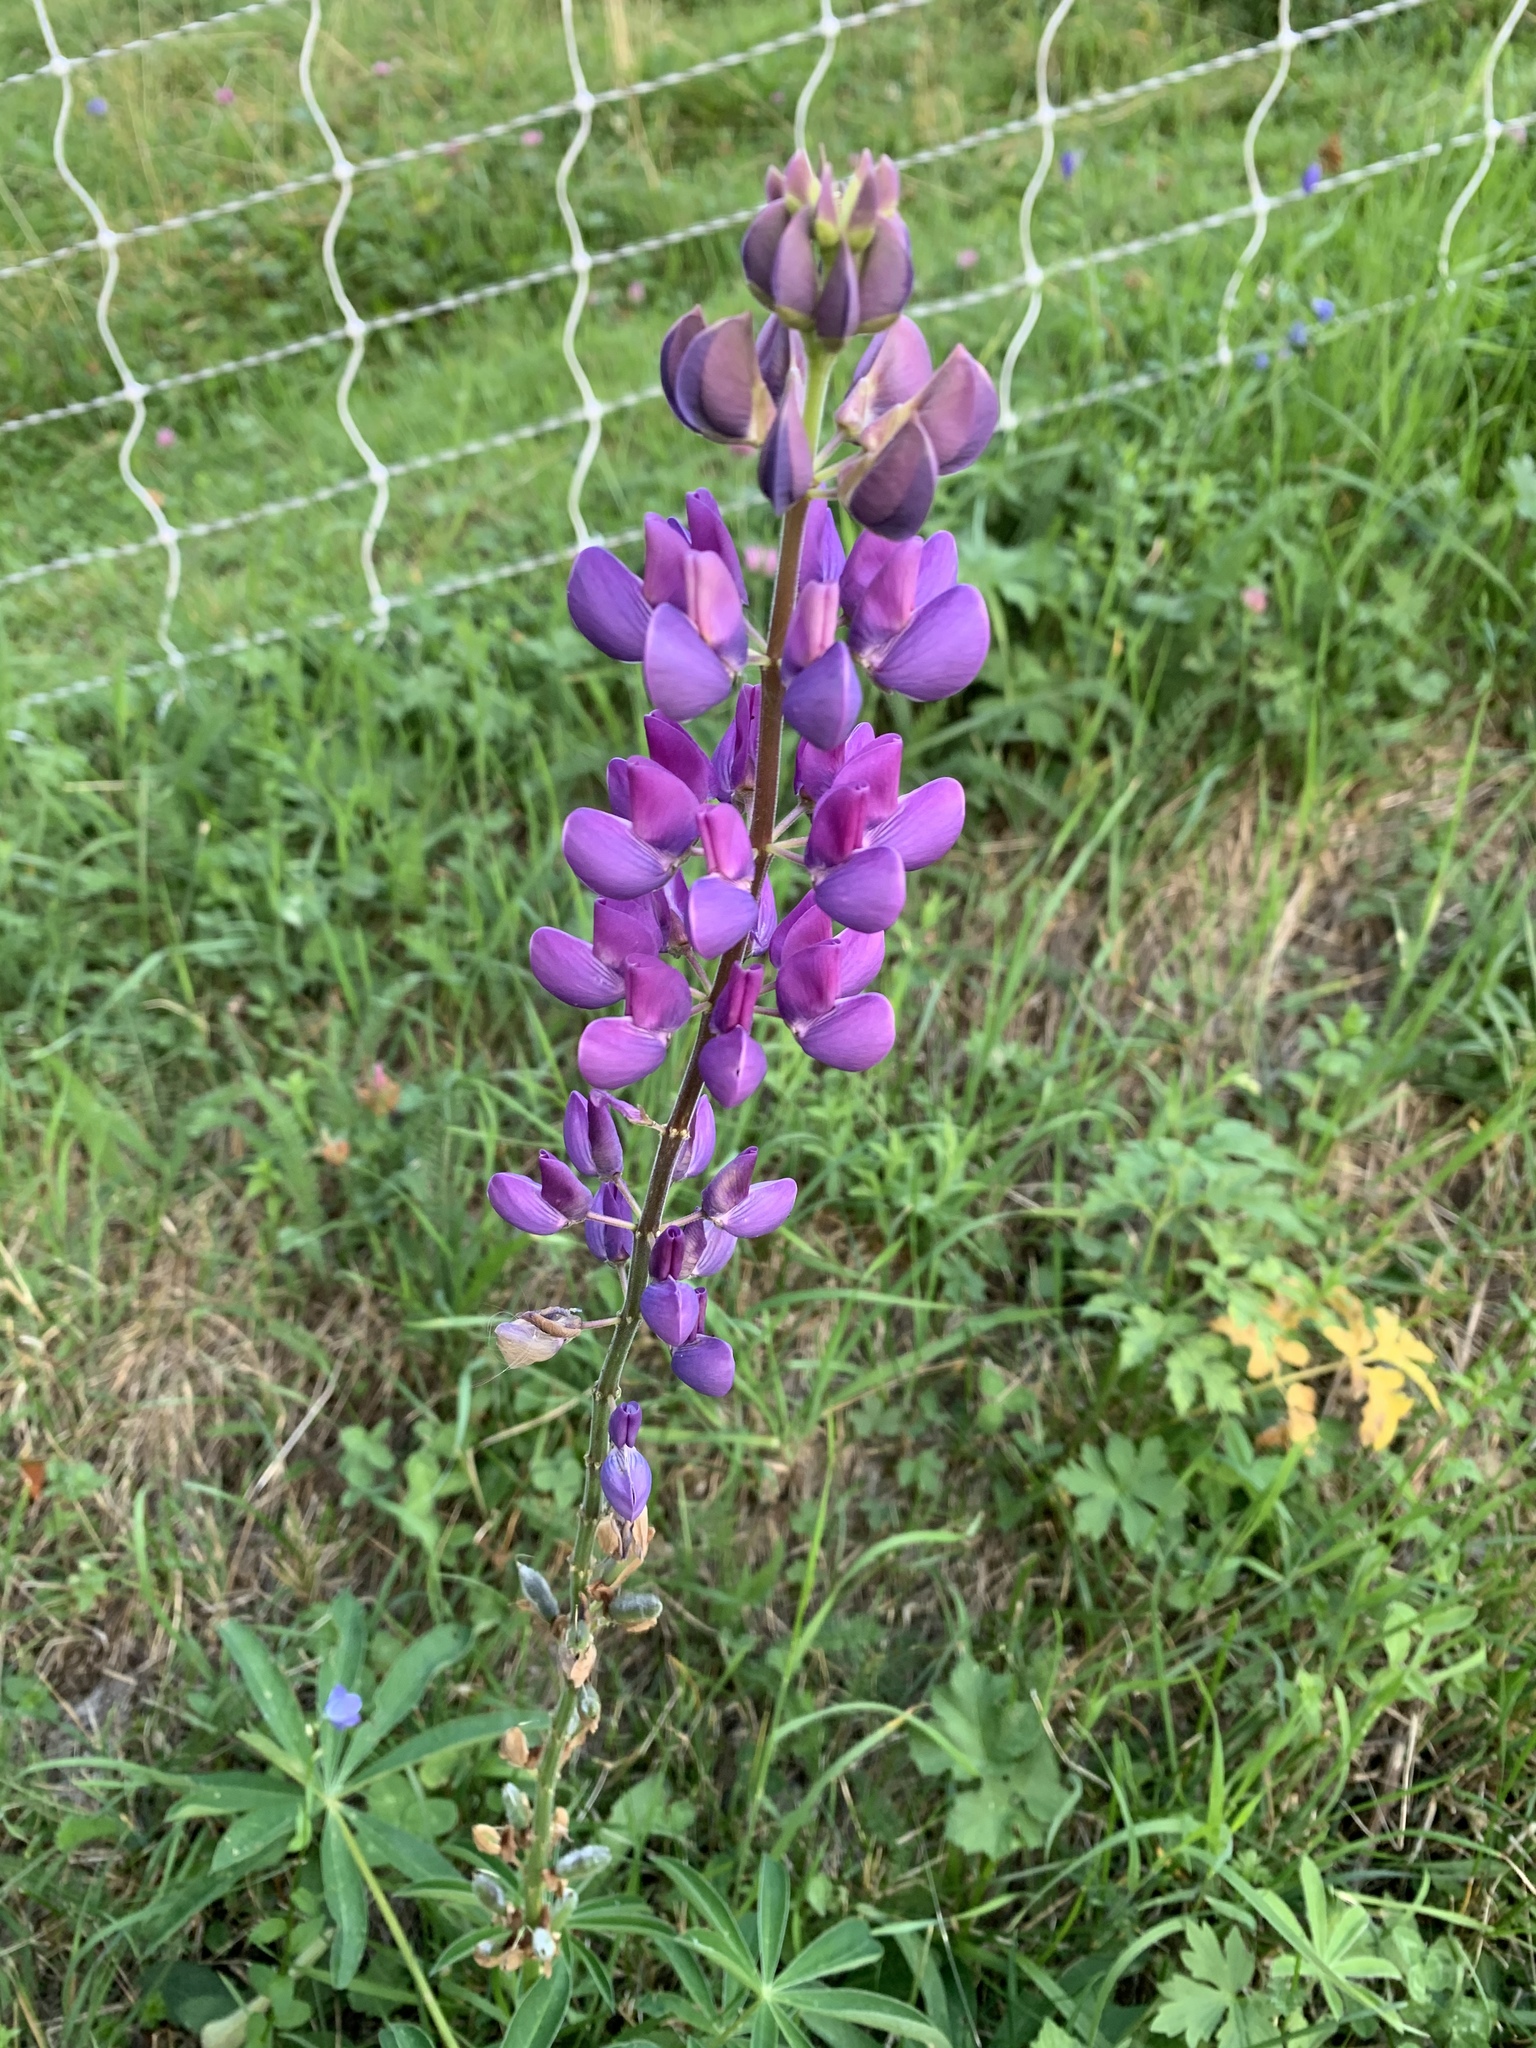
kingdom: Plantae
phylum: Tracheophyta
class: Magnoliopsida
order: Fabales
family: Fabaceae
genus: Lupinus
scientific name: Lupinus polyphyllus
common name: Garden lupin
